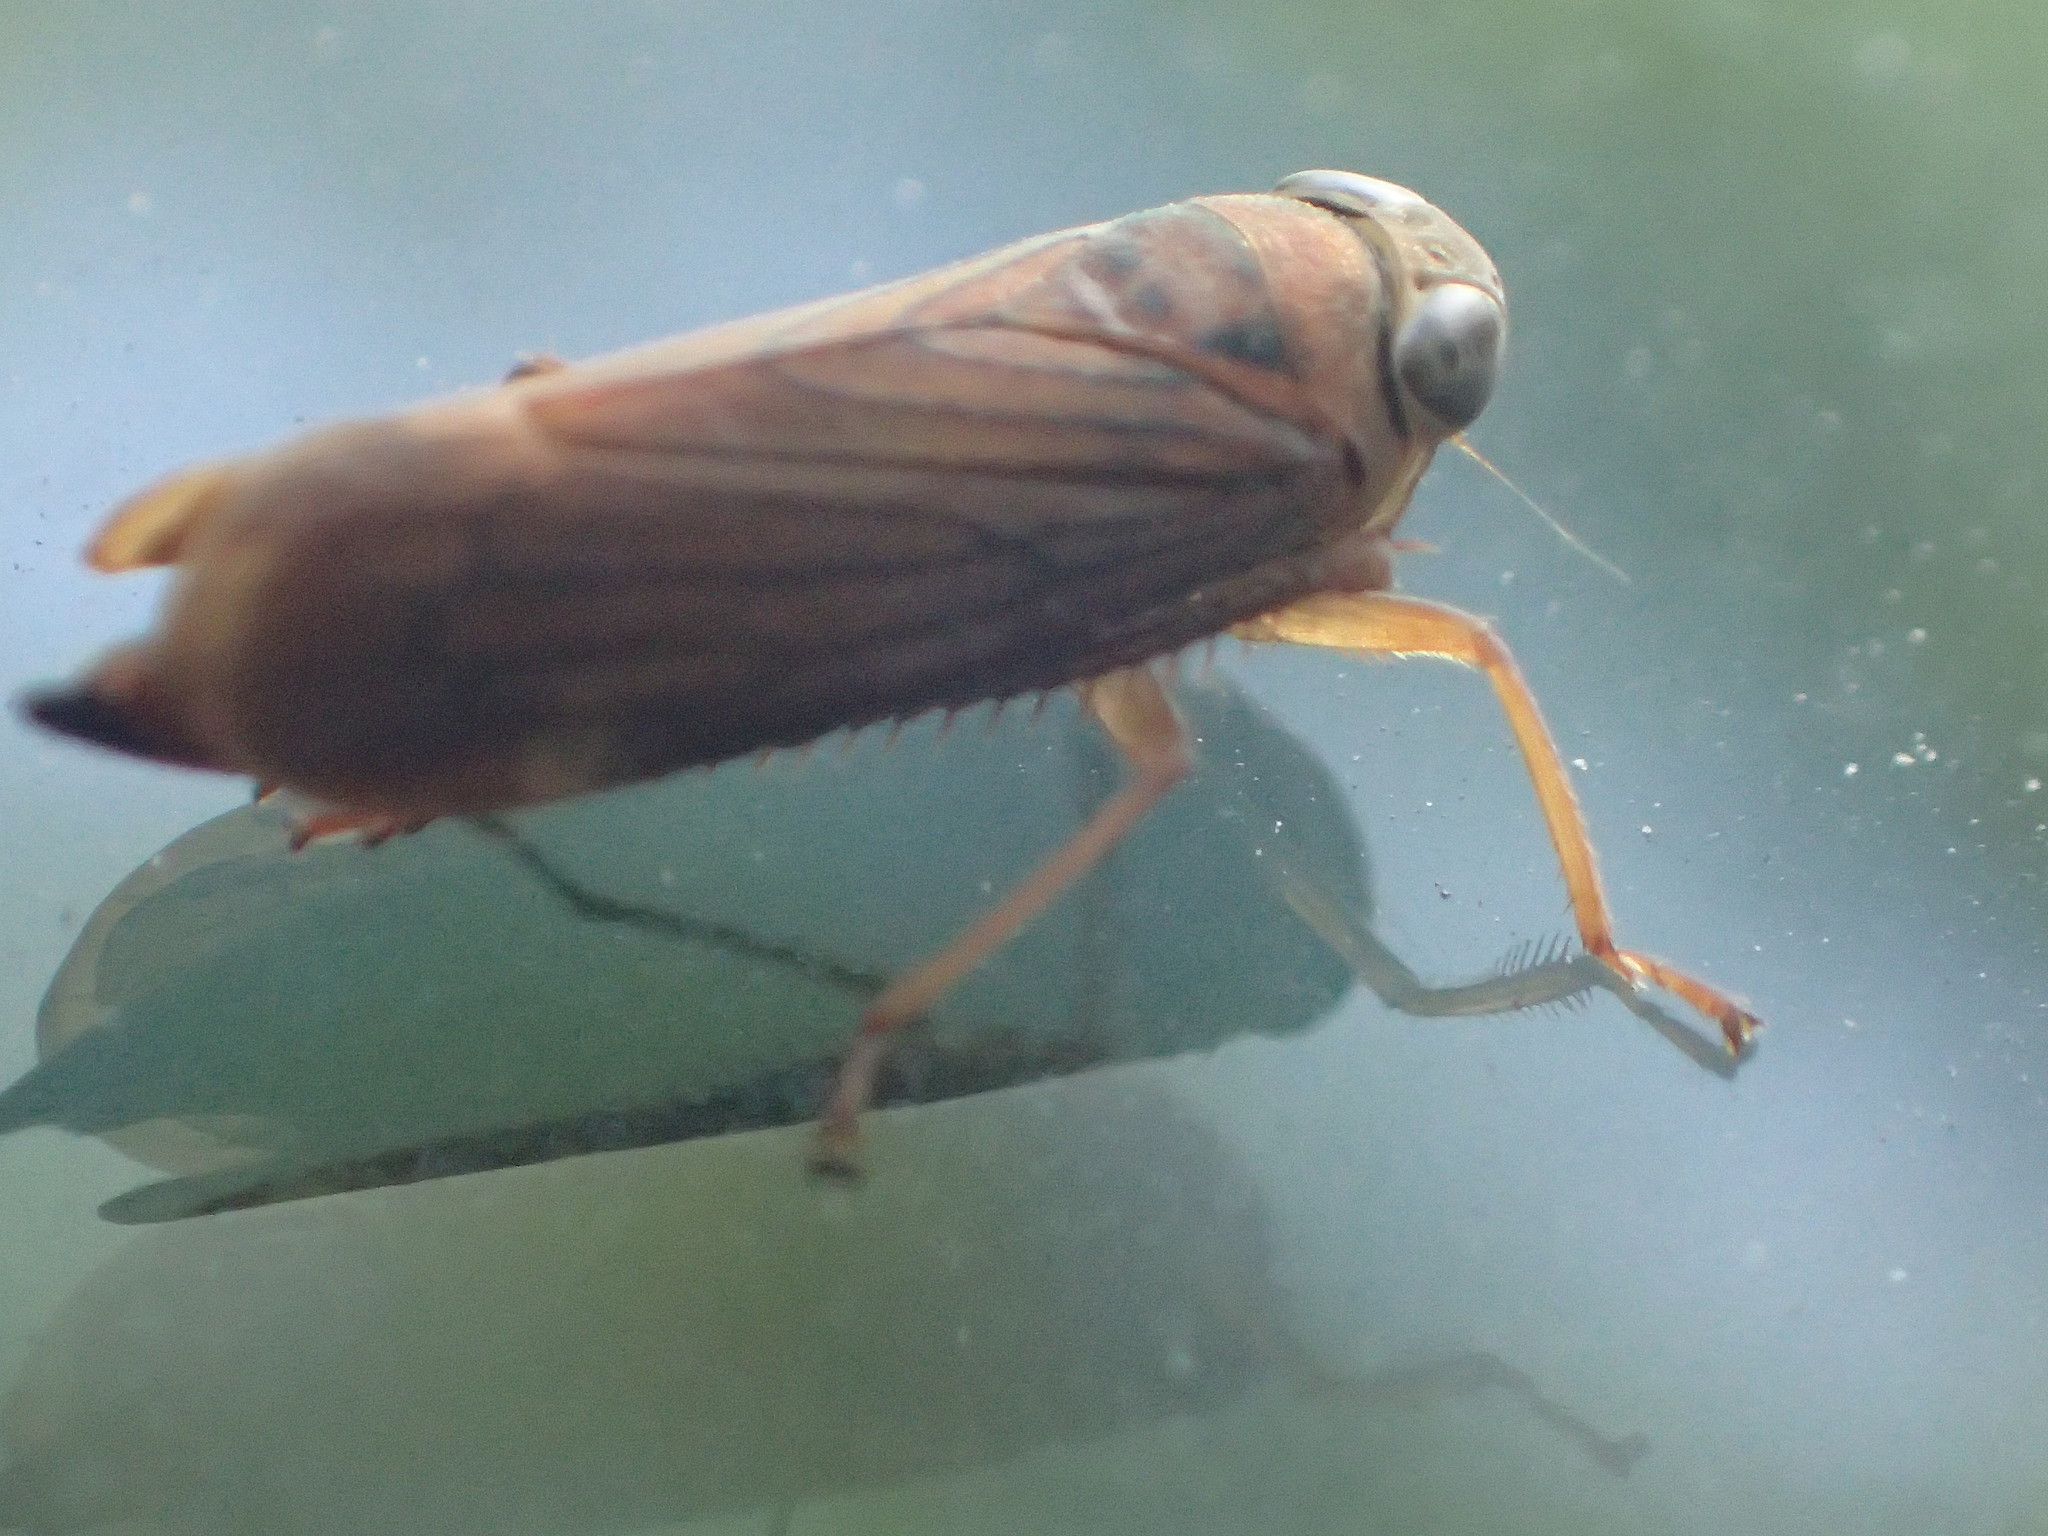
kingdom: Animalia
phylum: Arthropoda
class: Insecta
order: Hemiptera
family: Cicadellidae
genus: Jikradia
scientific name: Jikradia olitoria
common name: Coppery leafhopper
